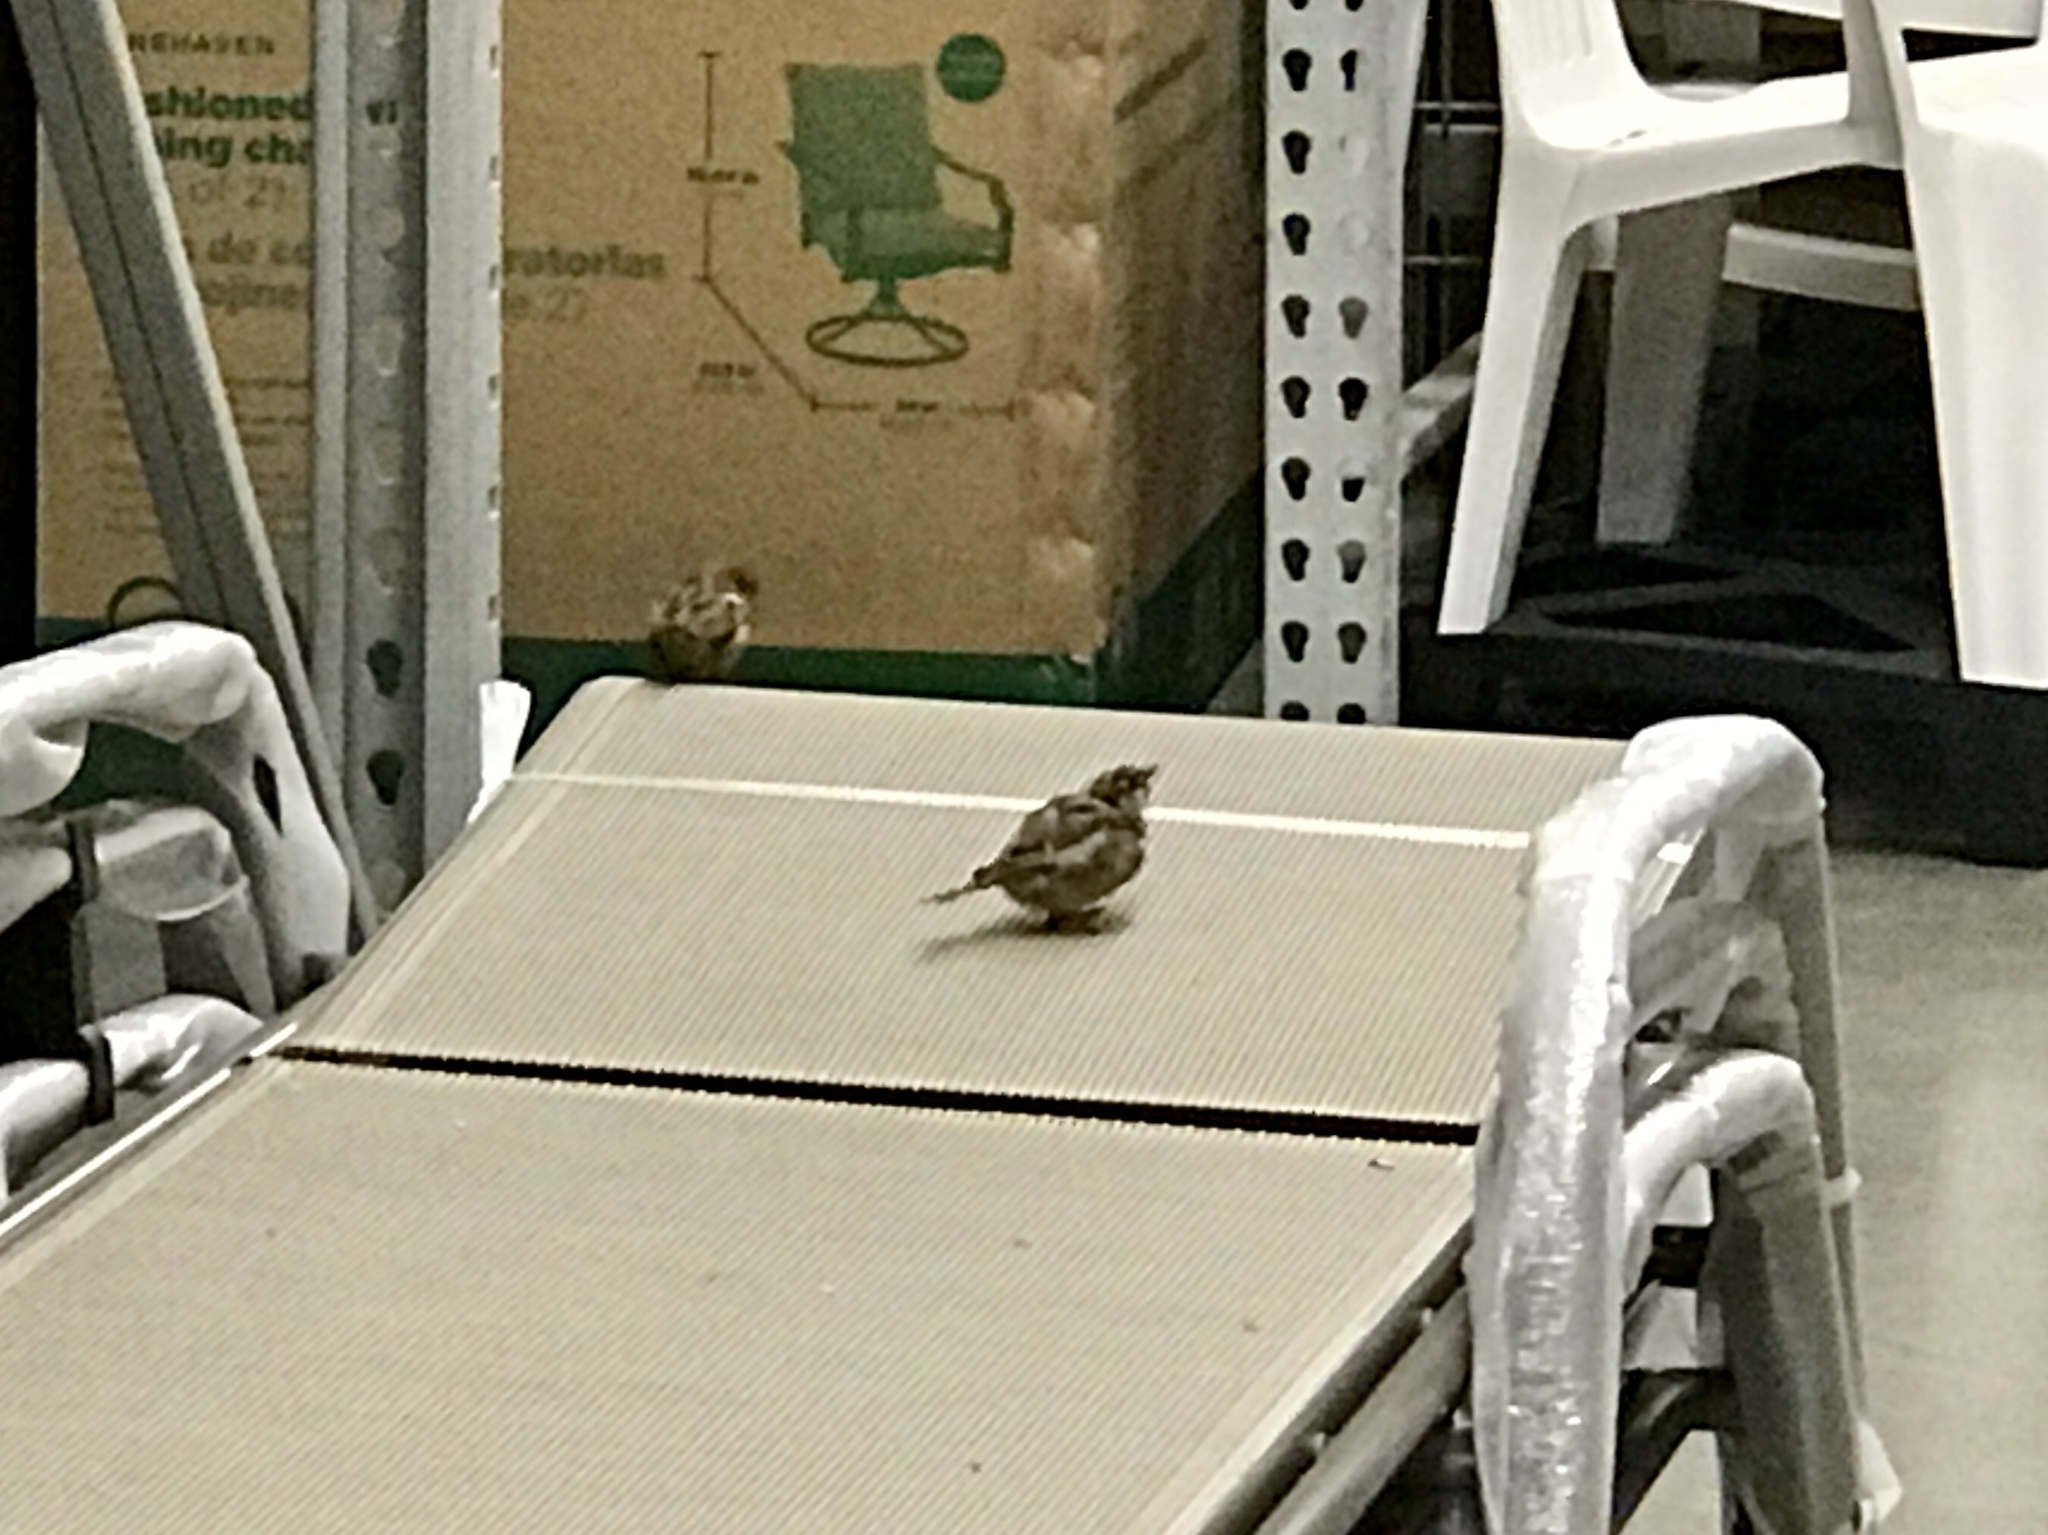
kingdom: Animalia
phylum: Chordata
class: Aves
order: Passeriformes
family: Passeridae
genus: Passer
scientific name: Passer domesticus
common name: House sparrow
